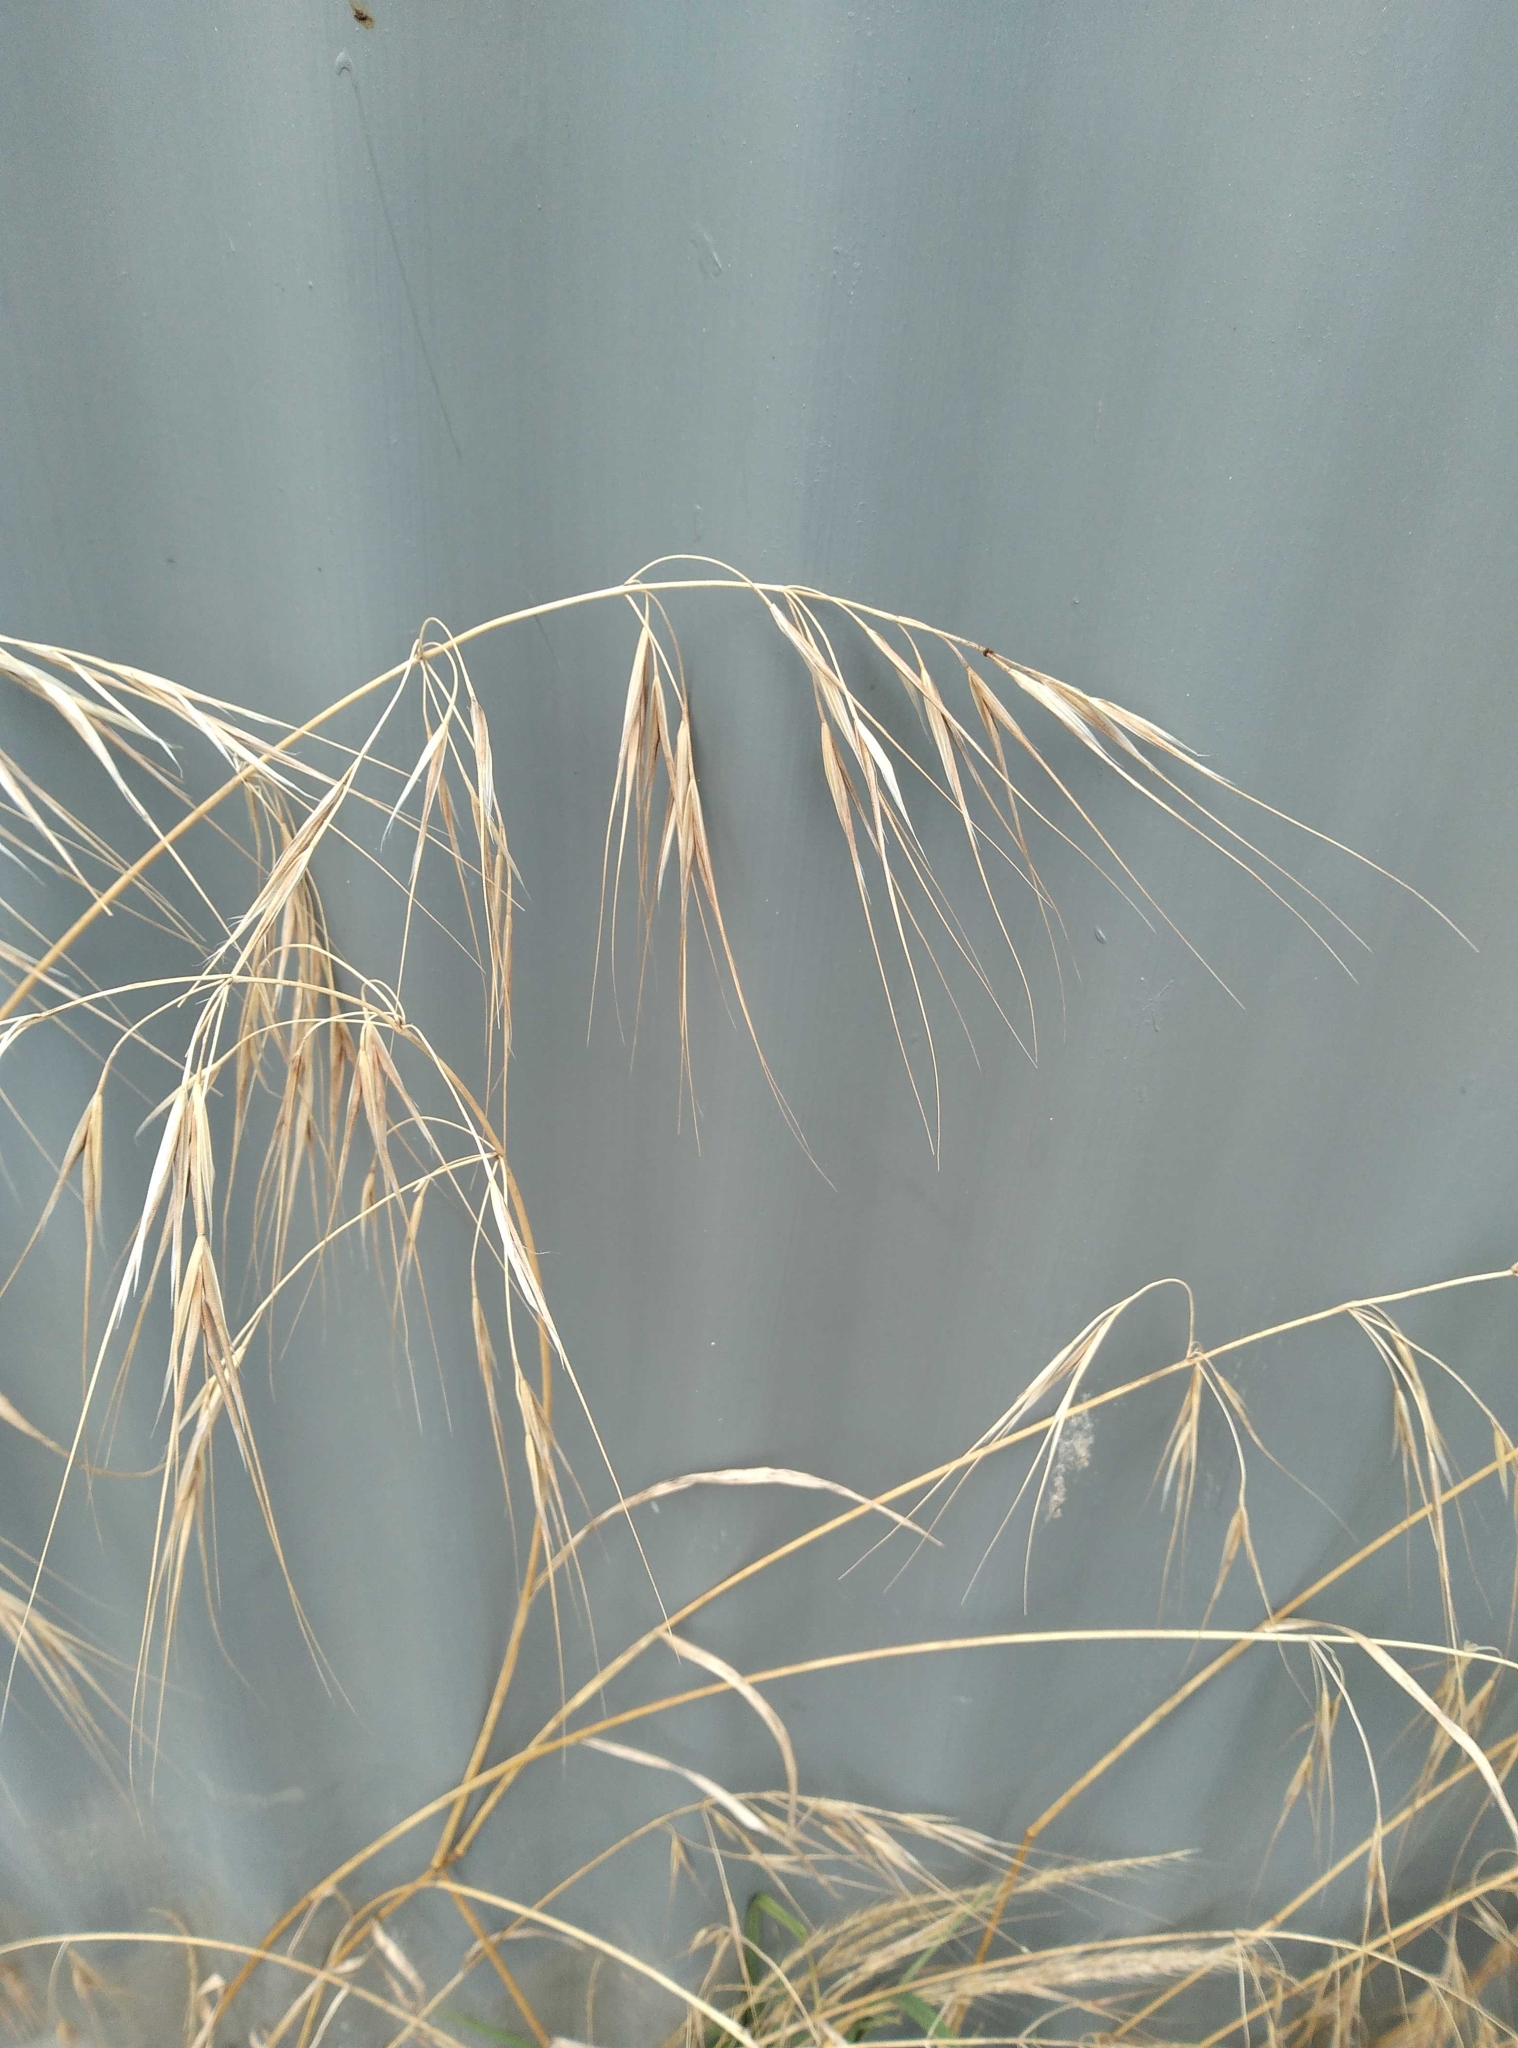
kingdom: Plantae
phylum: Tracheophyta
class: Liliopsida
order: Poales
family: Poaceae
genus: Bromus
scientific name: Bromus diandrus
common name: Ripgut brome
